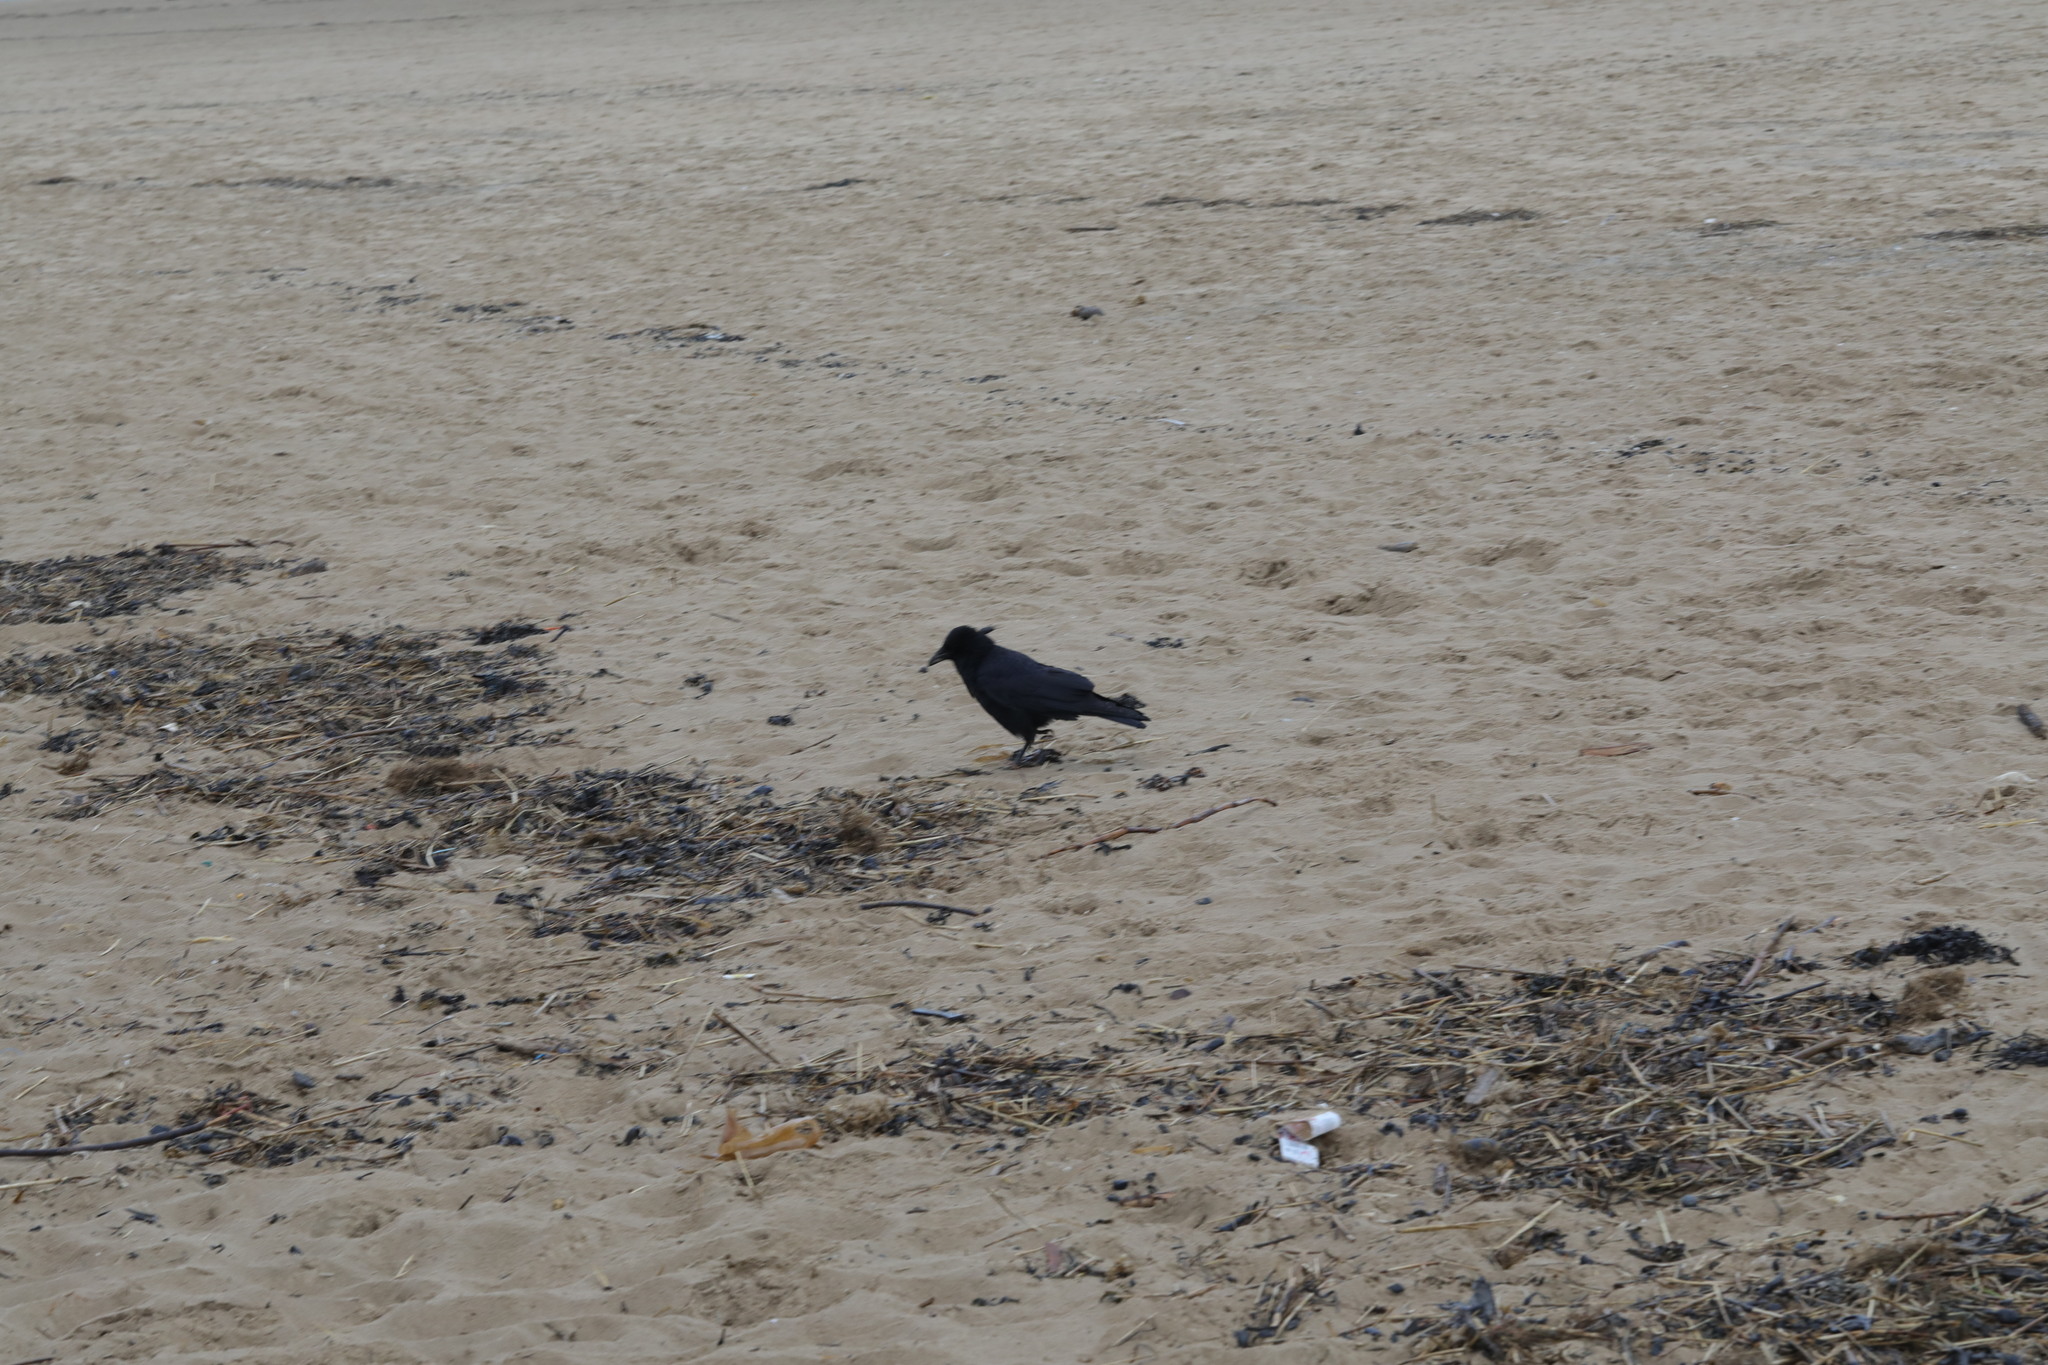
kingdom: Animalia
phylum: Chordata
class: Aves
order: Passeriformes
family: Corvidae
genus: Corvus
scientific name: Corvus corone
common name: Carrion crow
